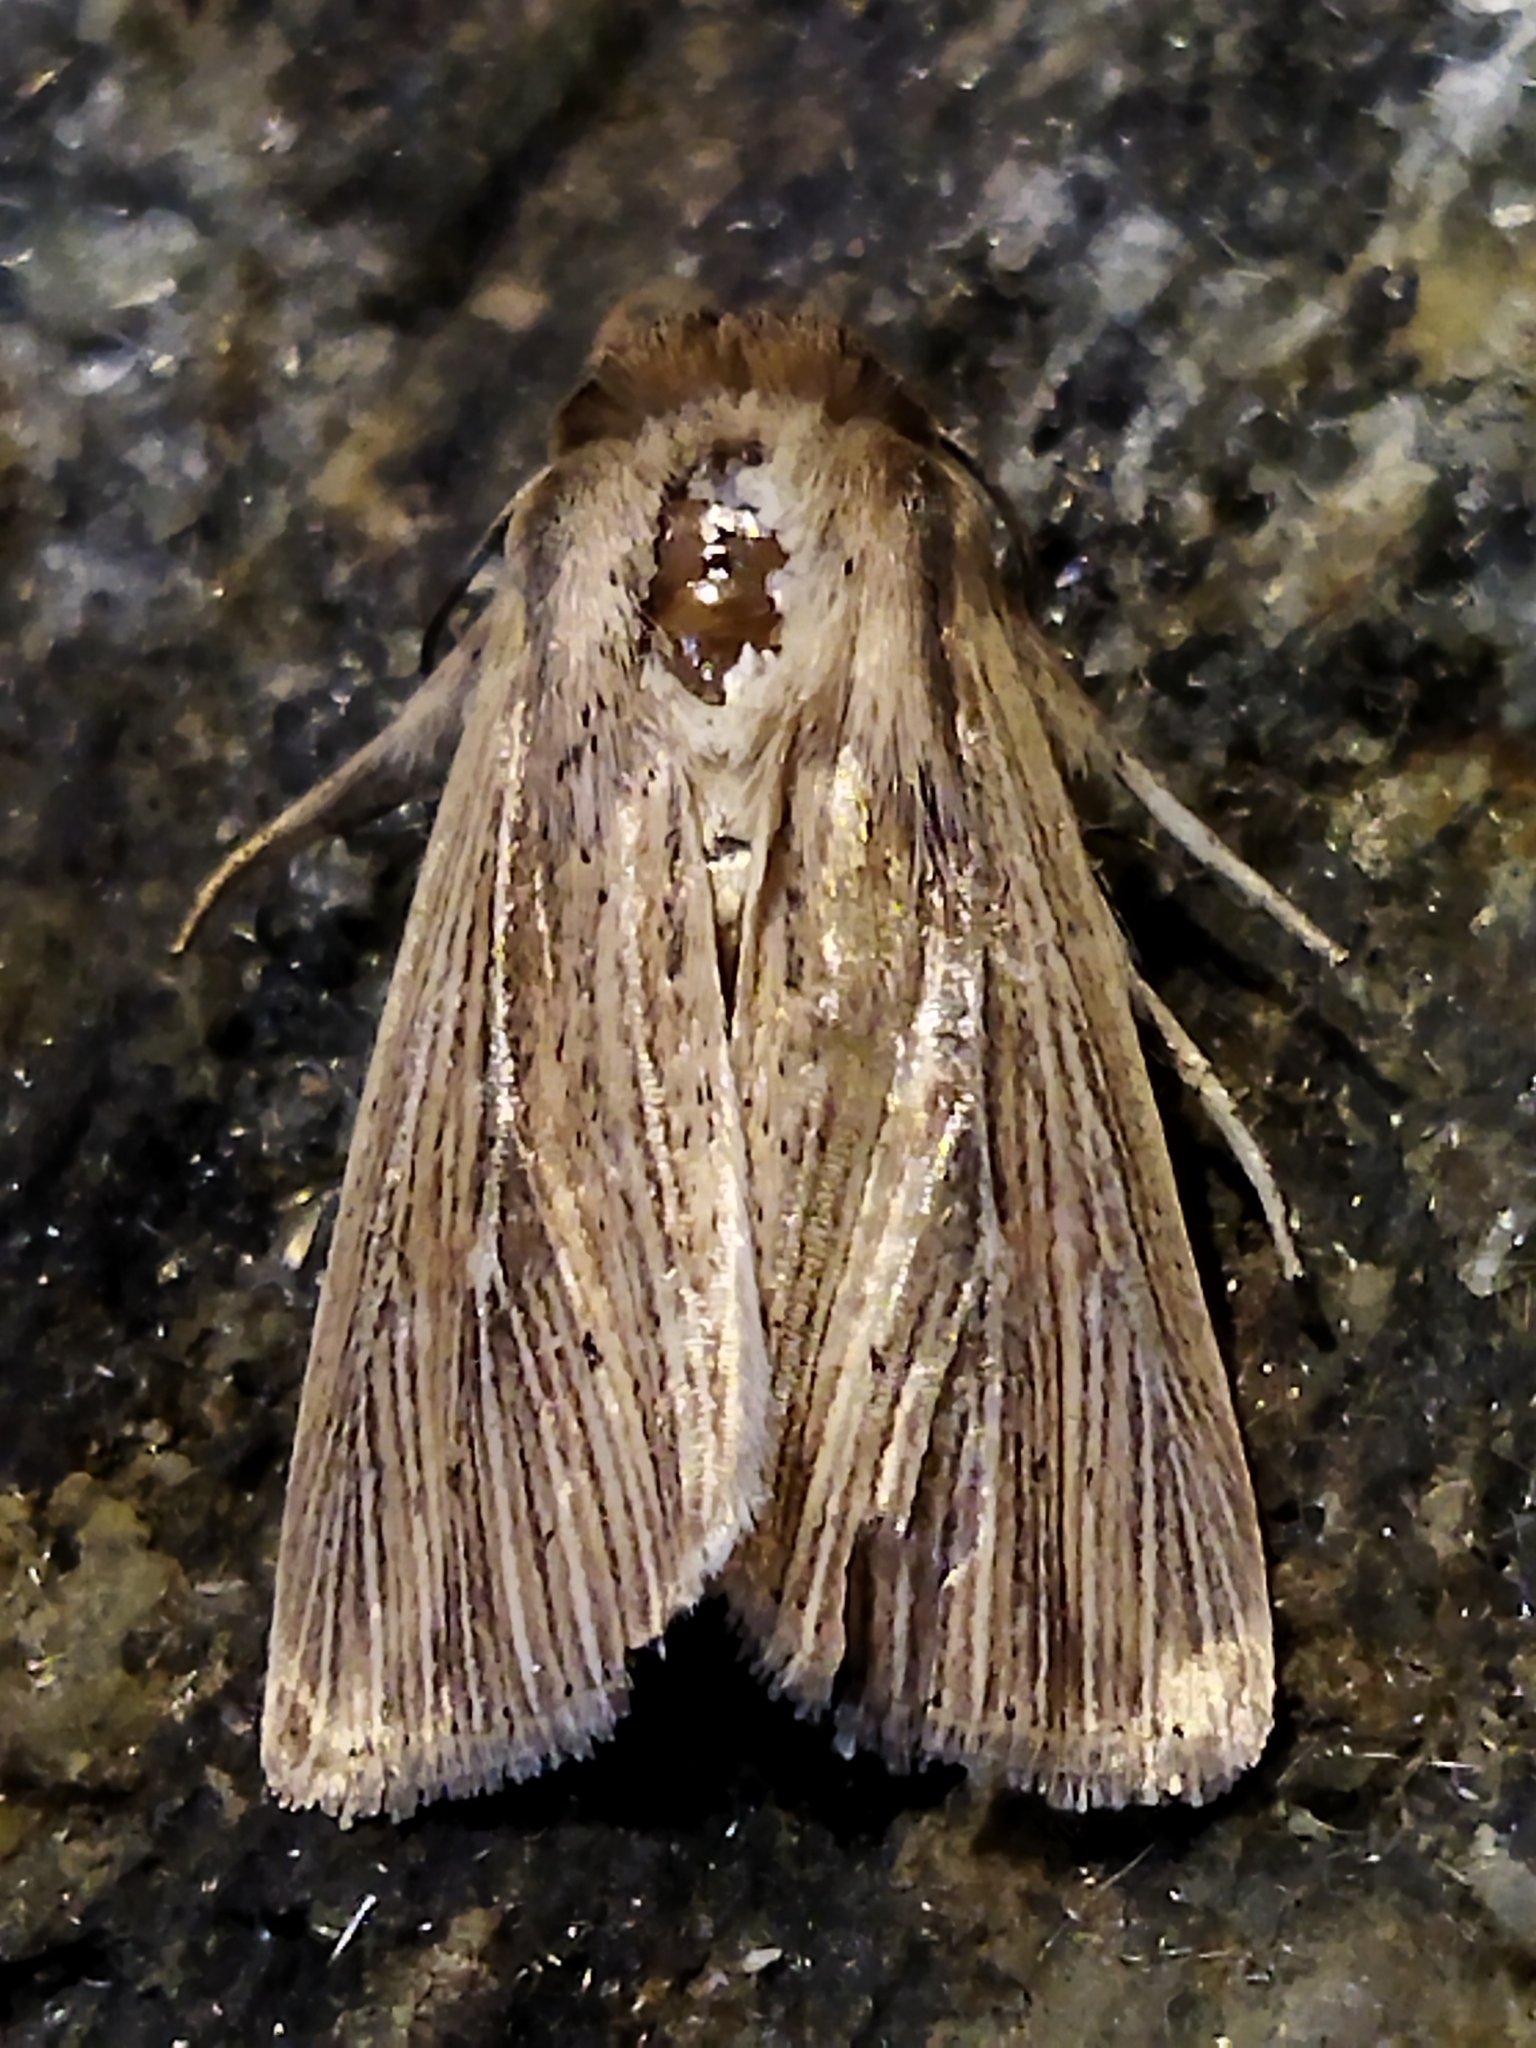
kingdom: Animalia
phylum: Arthropoda
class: Insecta
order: Lepidoptera
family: Noctuidae
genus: Mythimna
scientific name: Mythimna congrua
